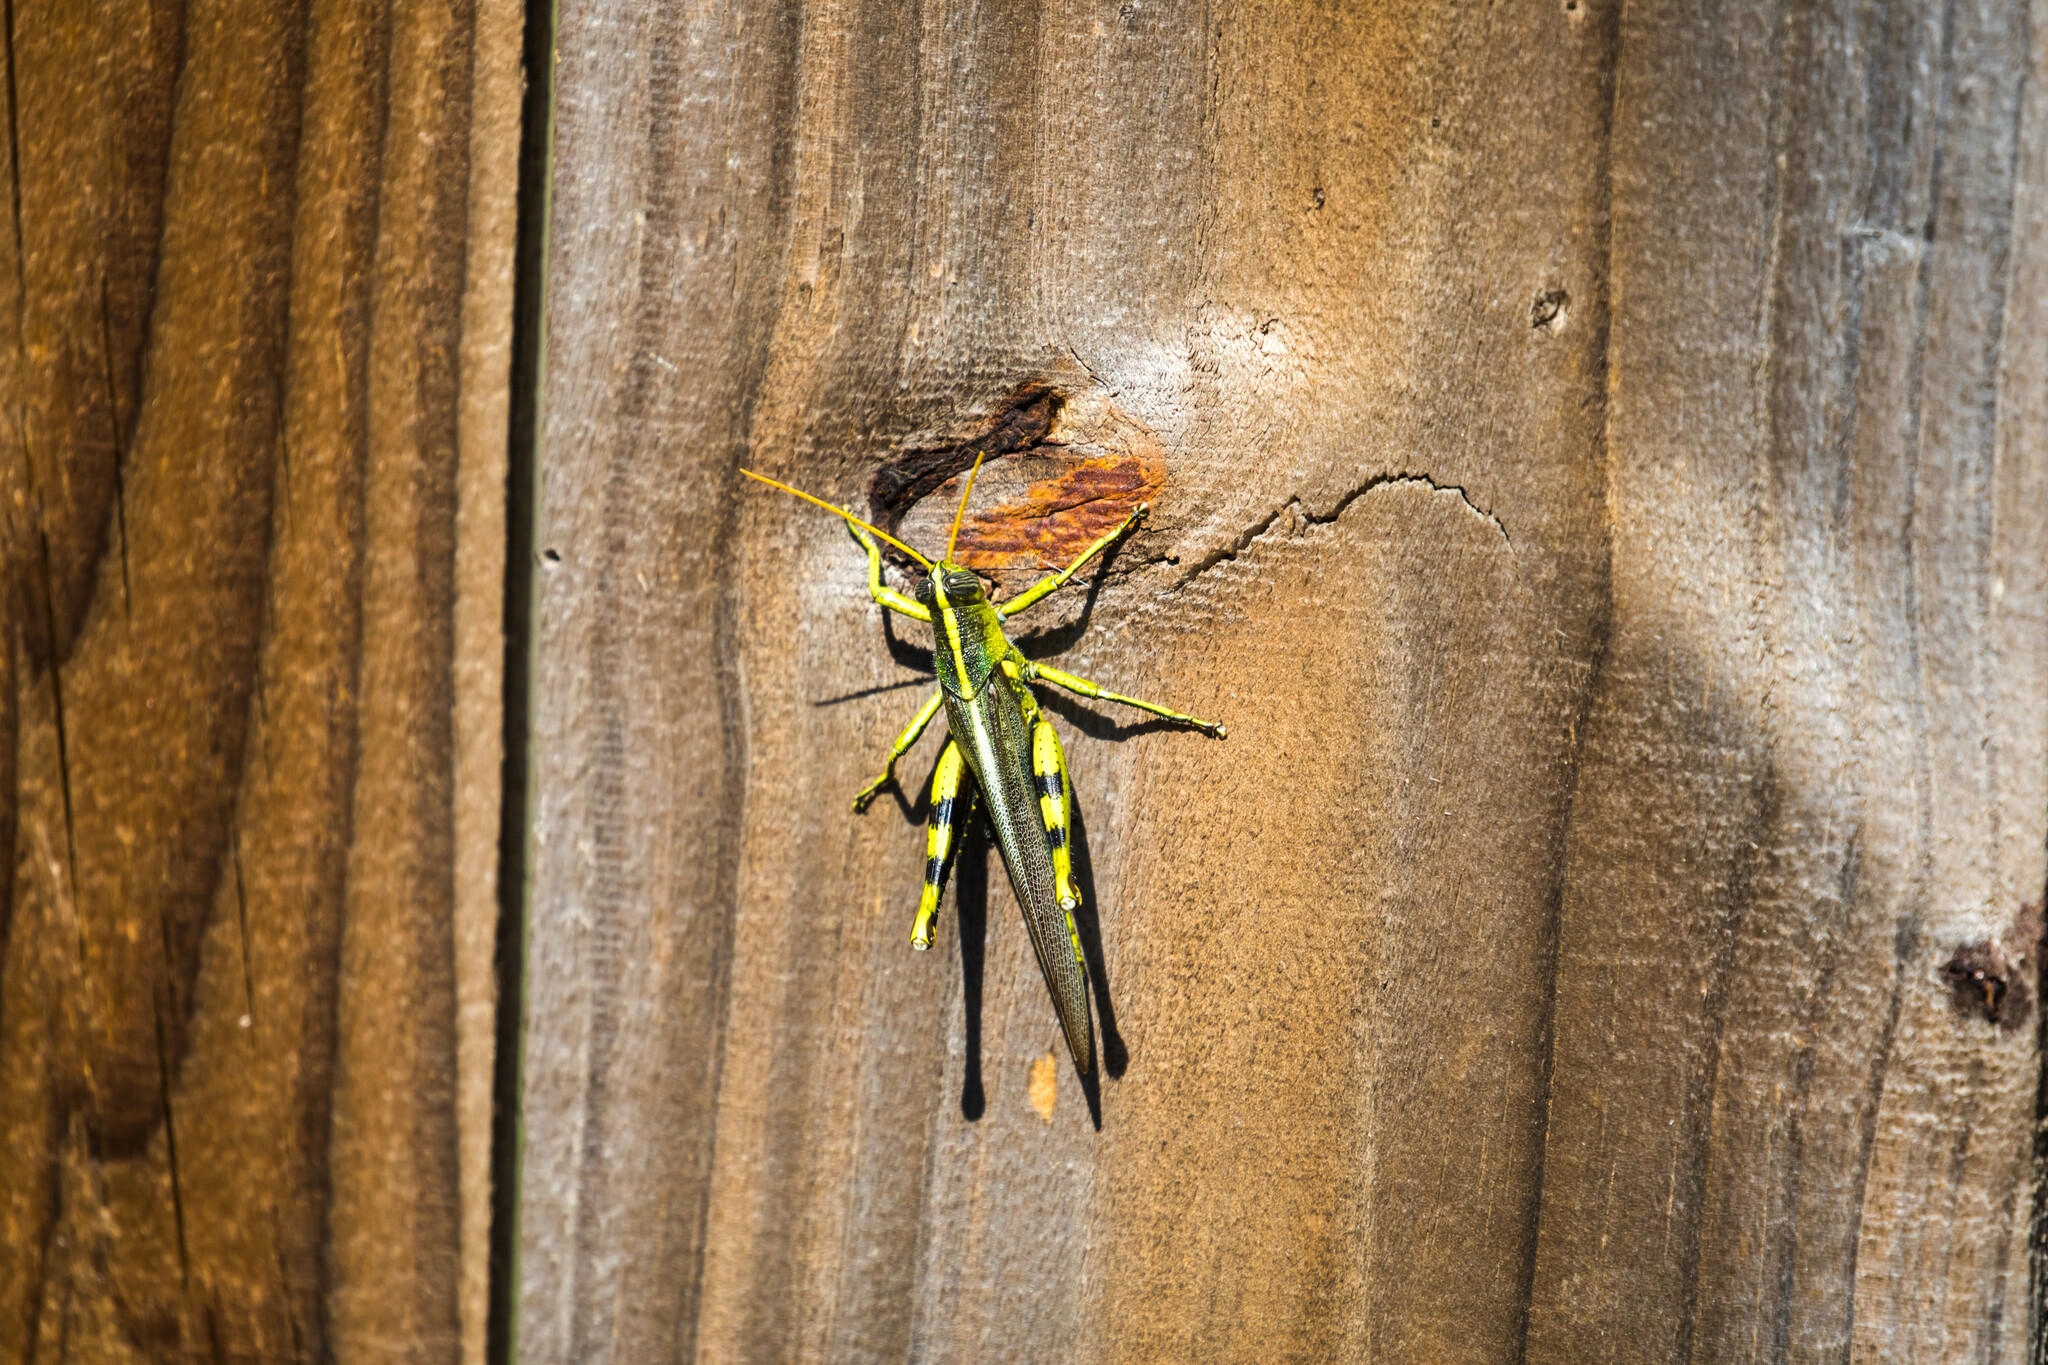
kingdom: Animalia
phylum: Arthropoda
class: Insecta
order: Orthoptera
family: Acrididae
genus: Schistocerca
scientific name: Schistocerca obscura
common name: Obscure bird grasshopper
